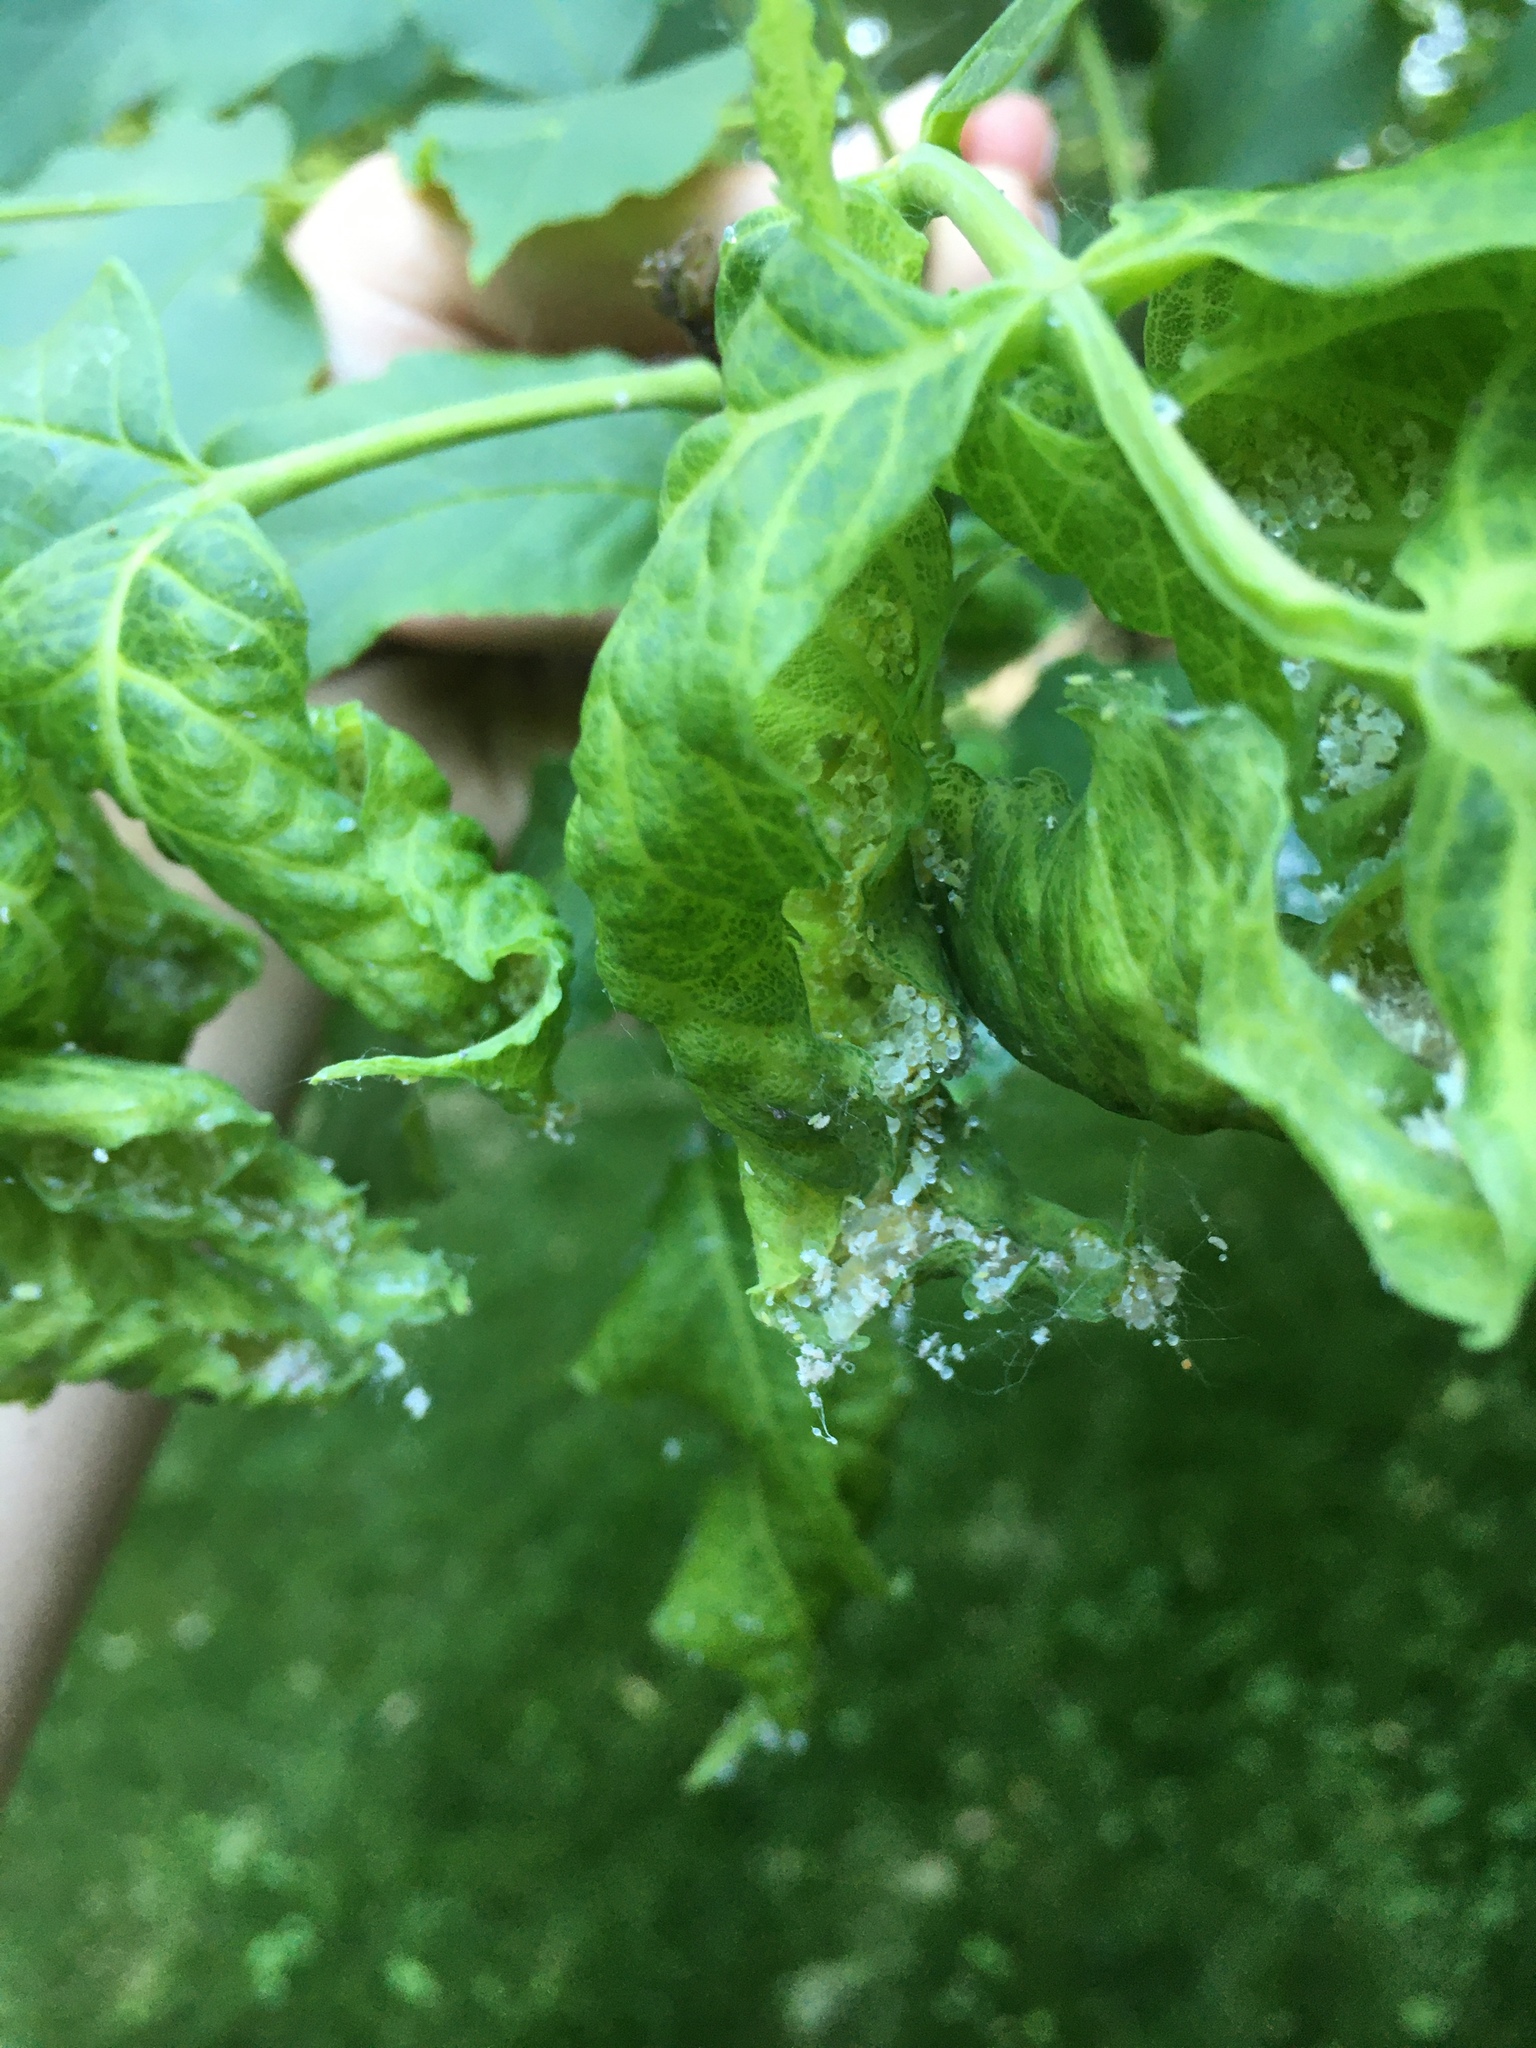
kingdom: Animalia
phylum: Arthropoda
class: Insecta
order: Hemiptera
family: Aphididae
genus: Prociphilus
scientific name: Prociphilus fraxinifolii
